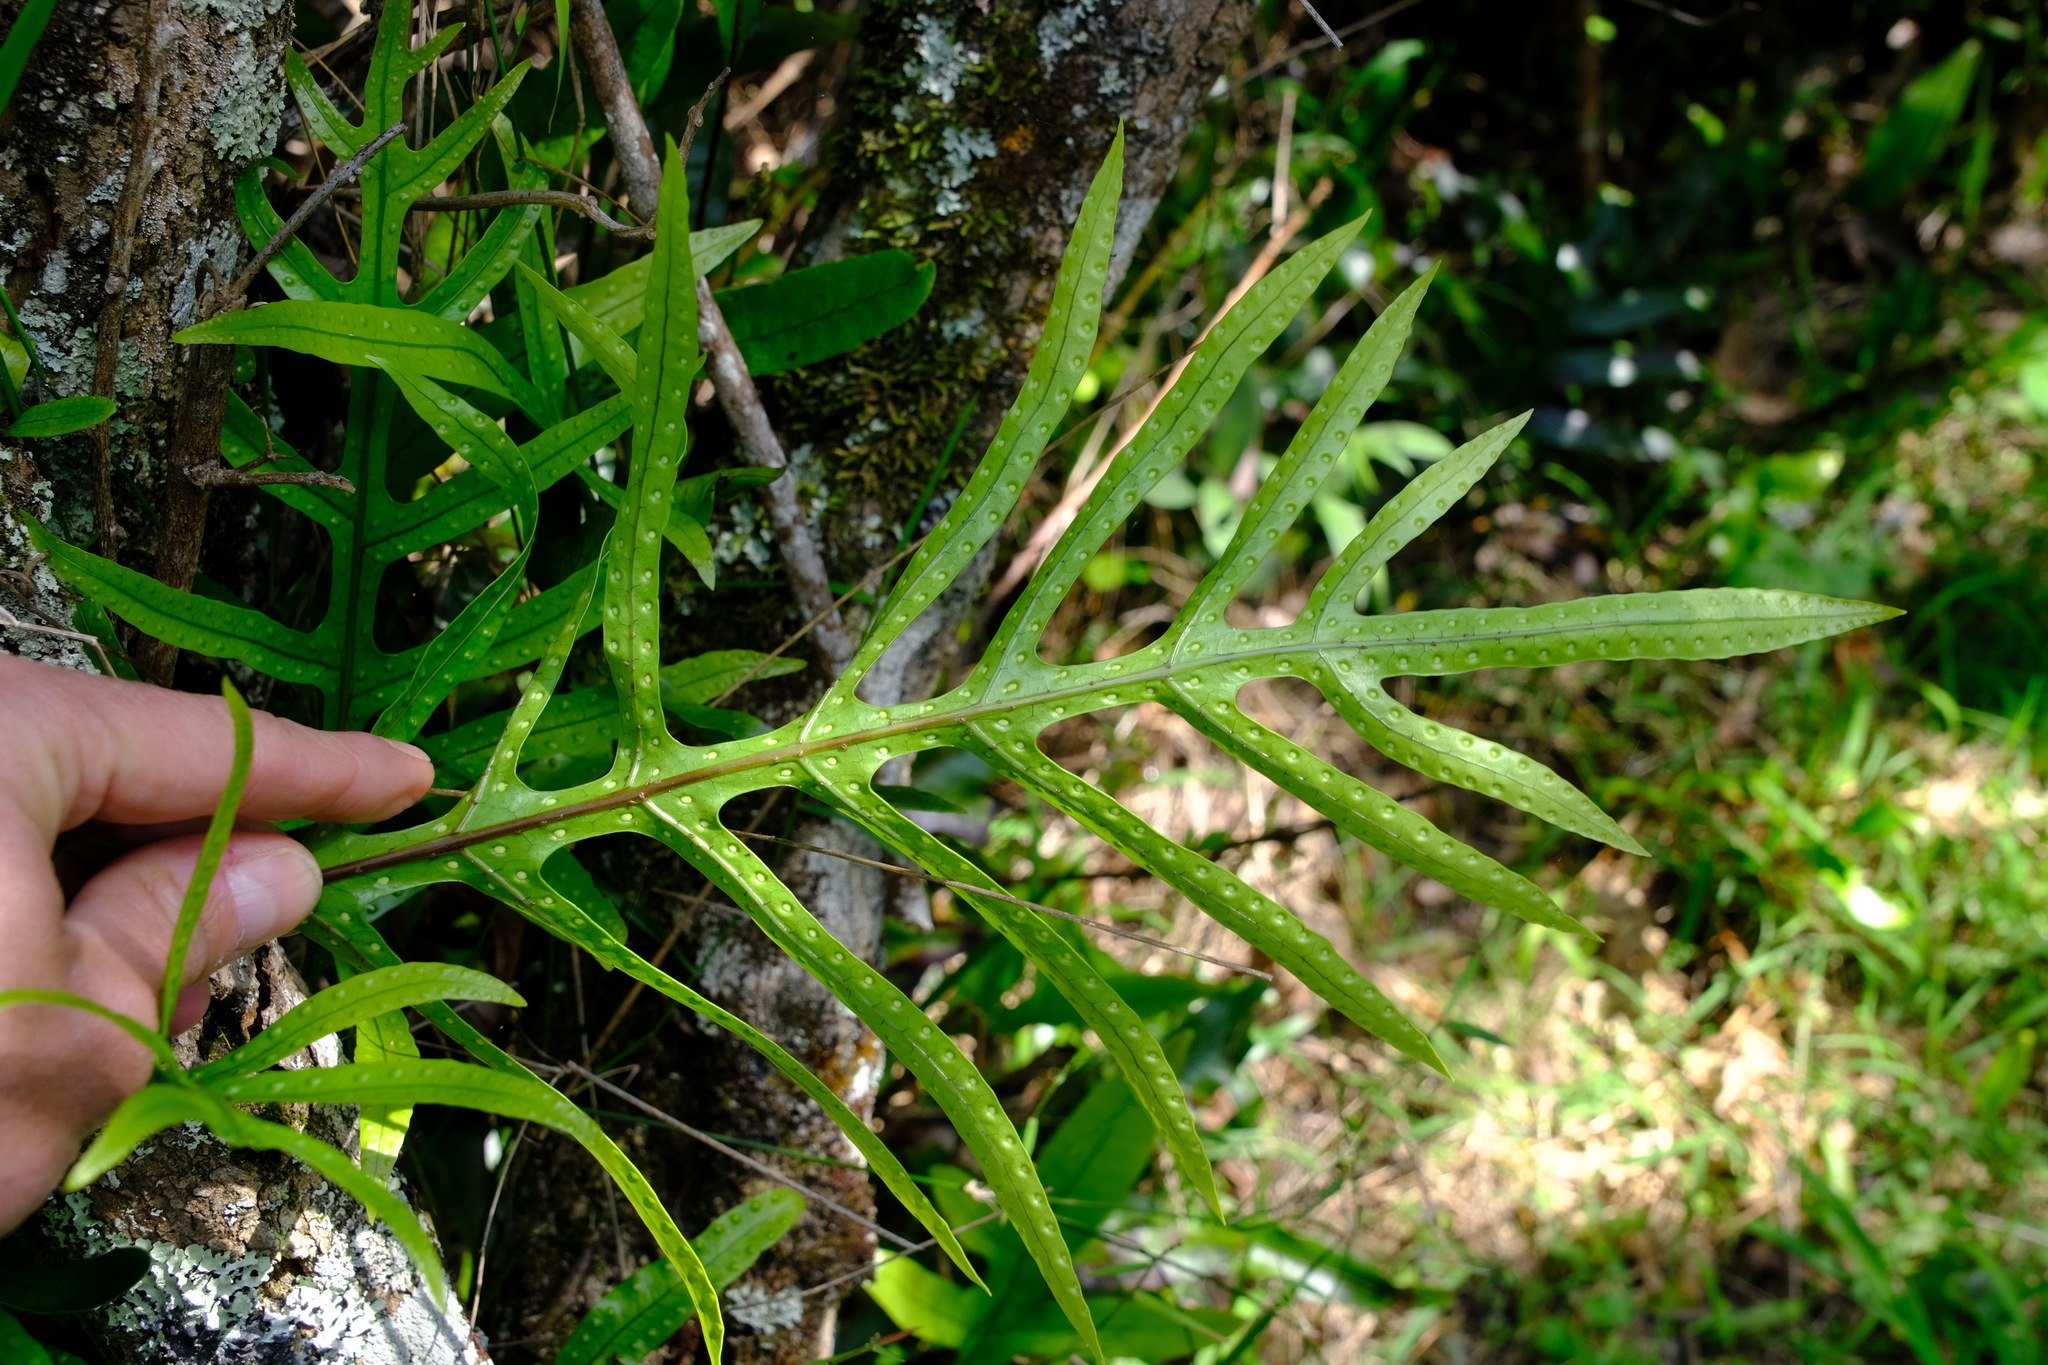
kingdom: Plantae
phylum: Tracheophyta
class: Polypodiopsida
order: Polypodiales
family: Polypodiaceae
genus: Lecanopteris
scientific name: Lecanopteris pustulata
